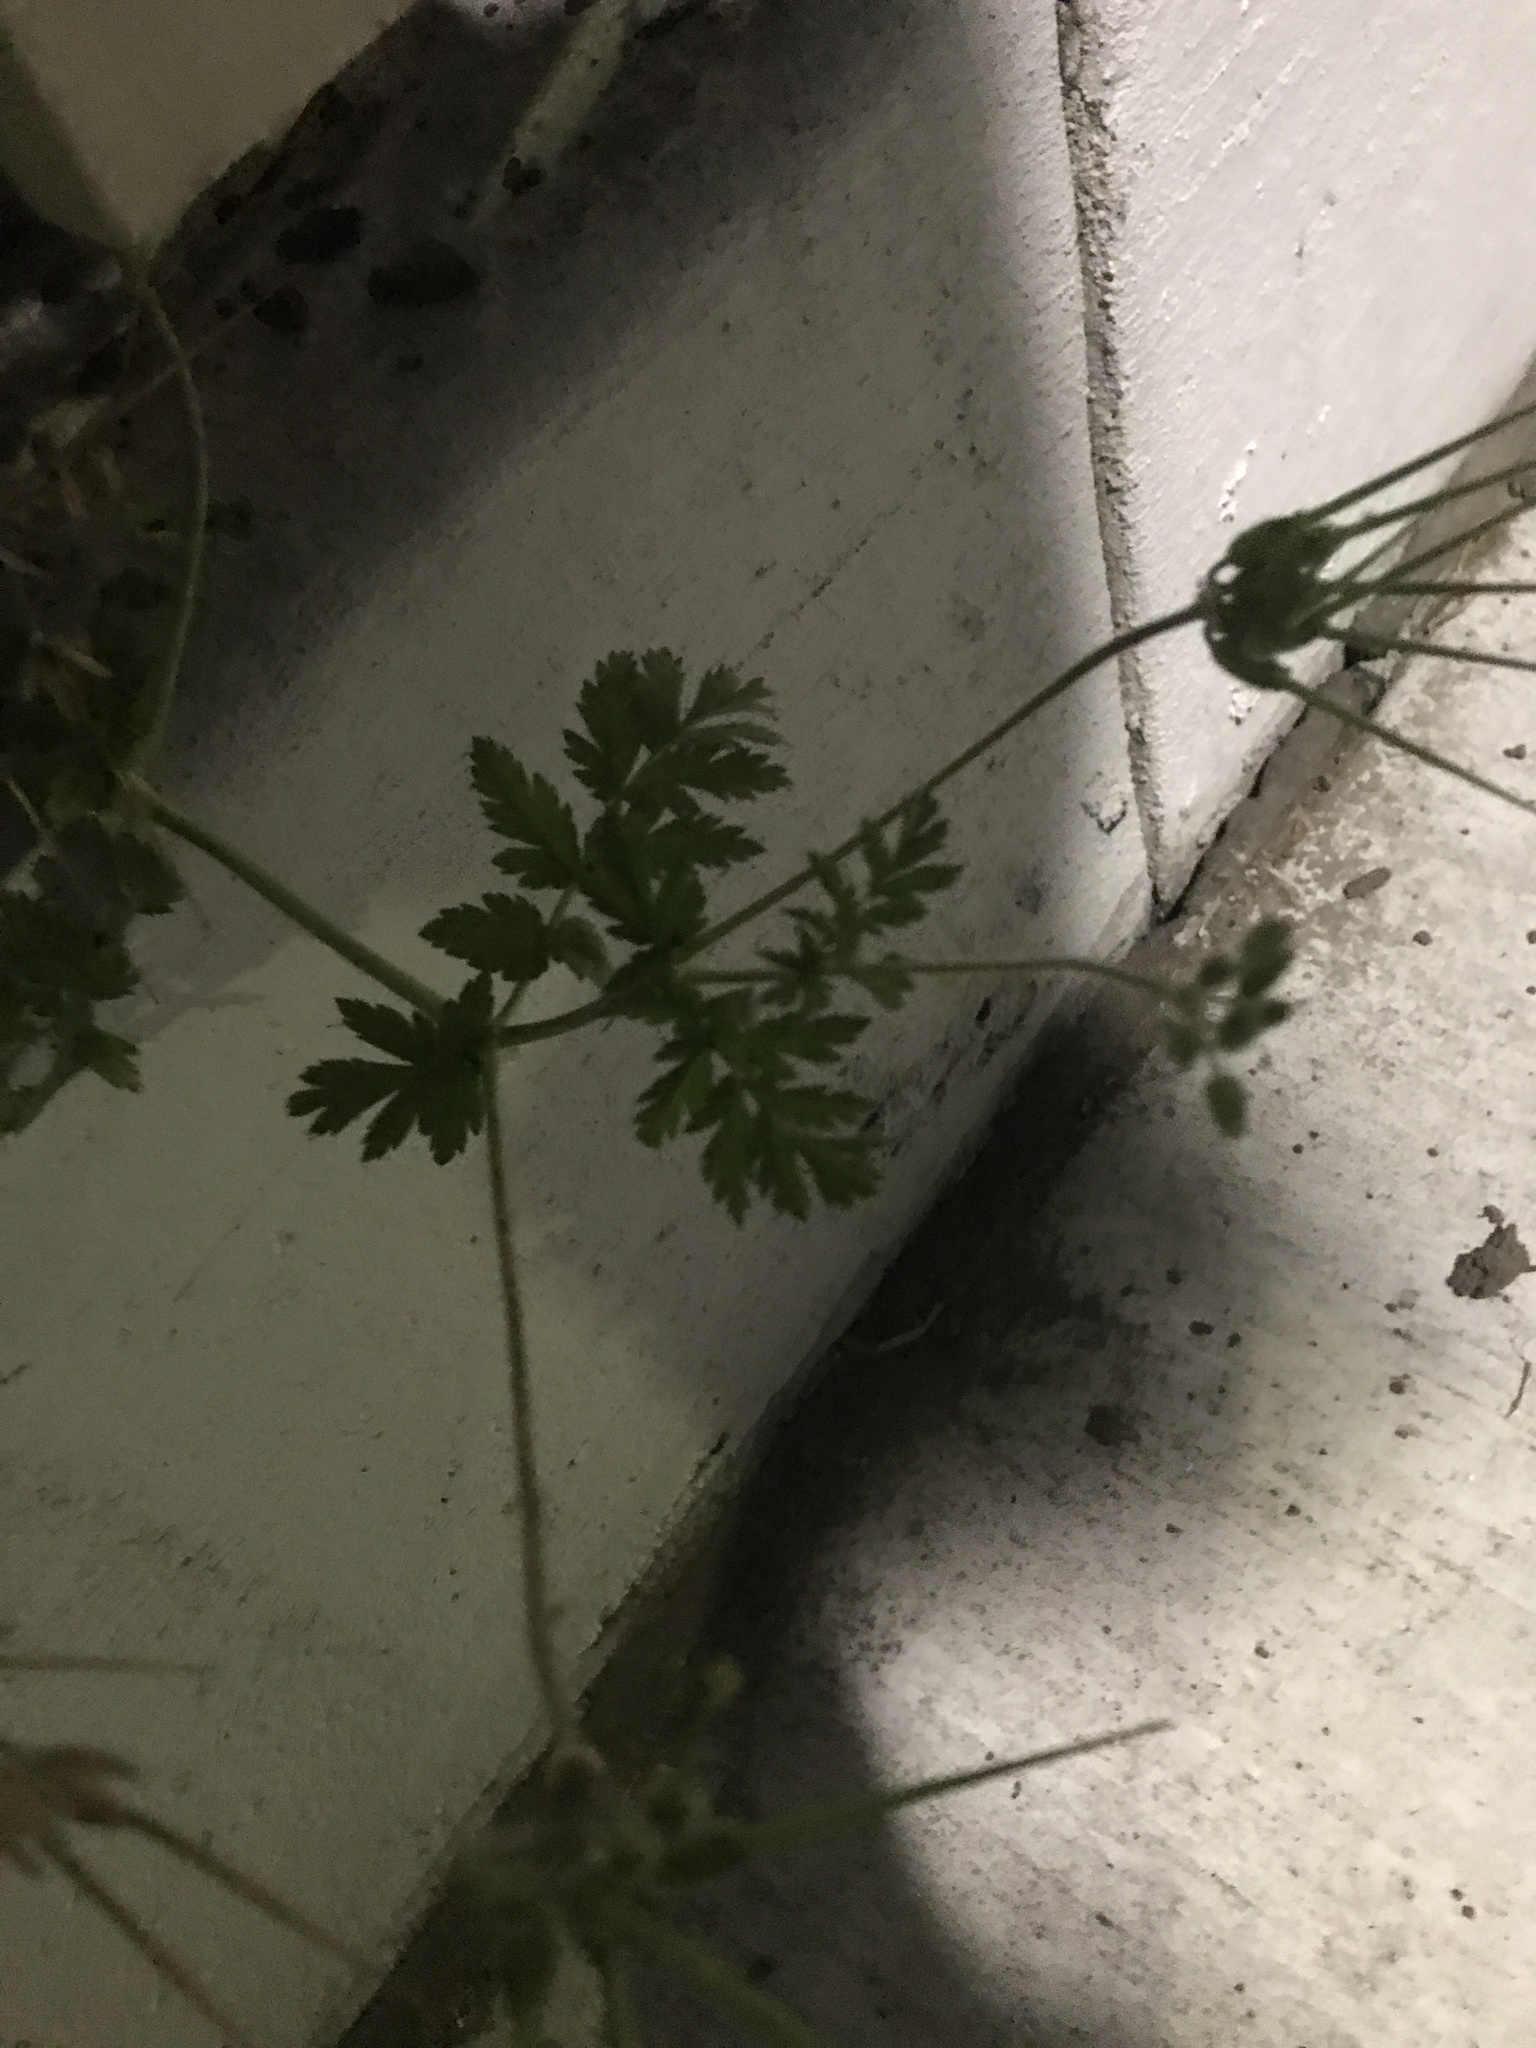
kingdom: Plantae
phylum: Tracheophyta
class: Magnoliopsida
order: Geraniales
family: Geraniaceae
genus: Erodium
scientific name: Erodium moschatum
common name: Musk stork's-bill
